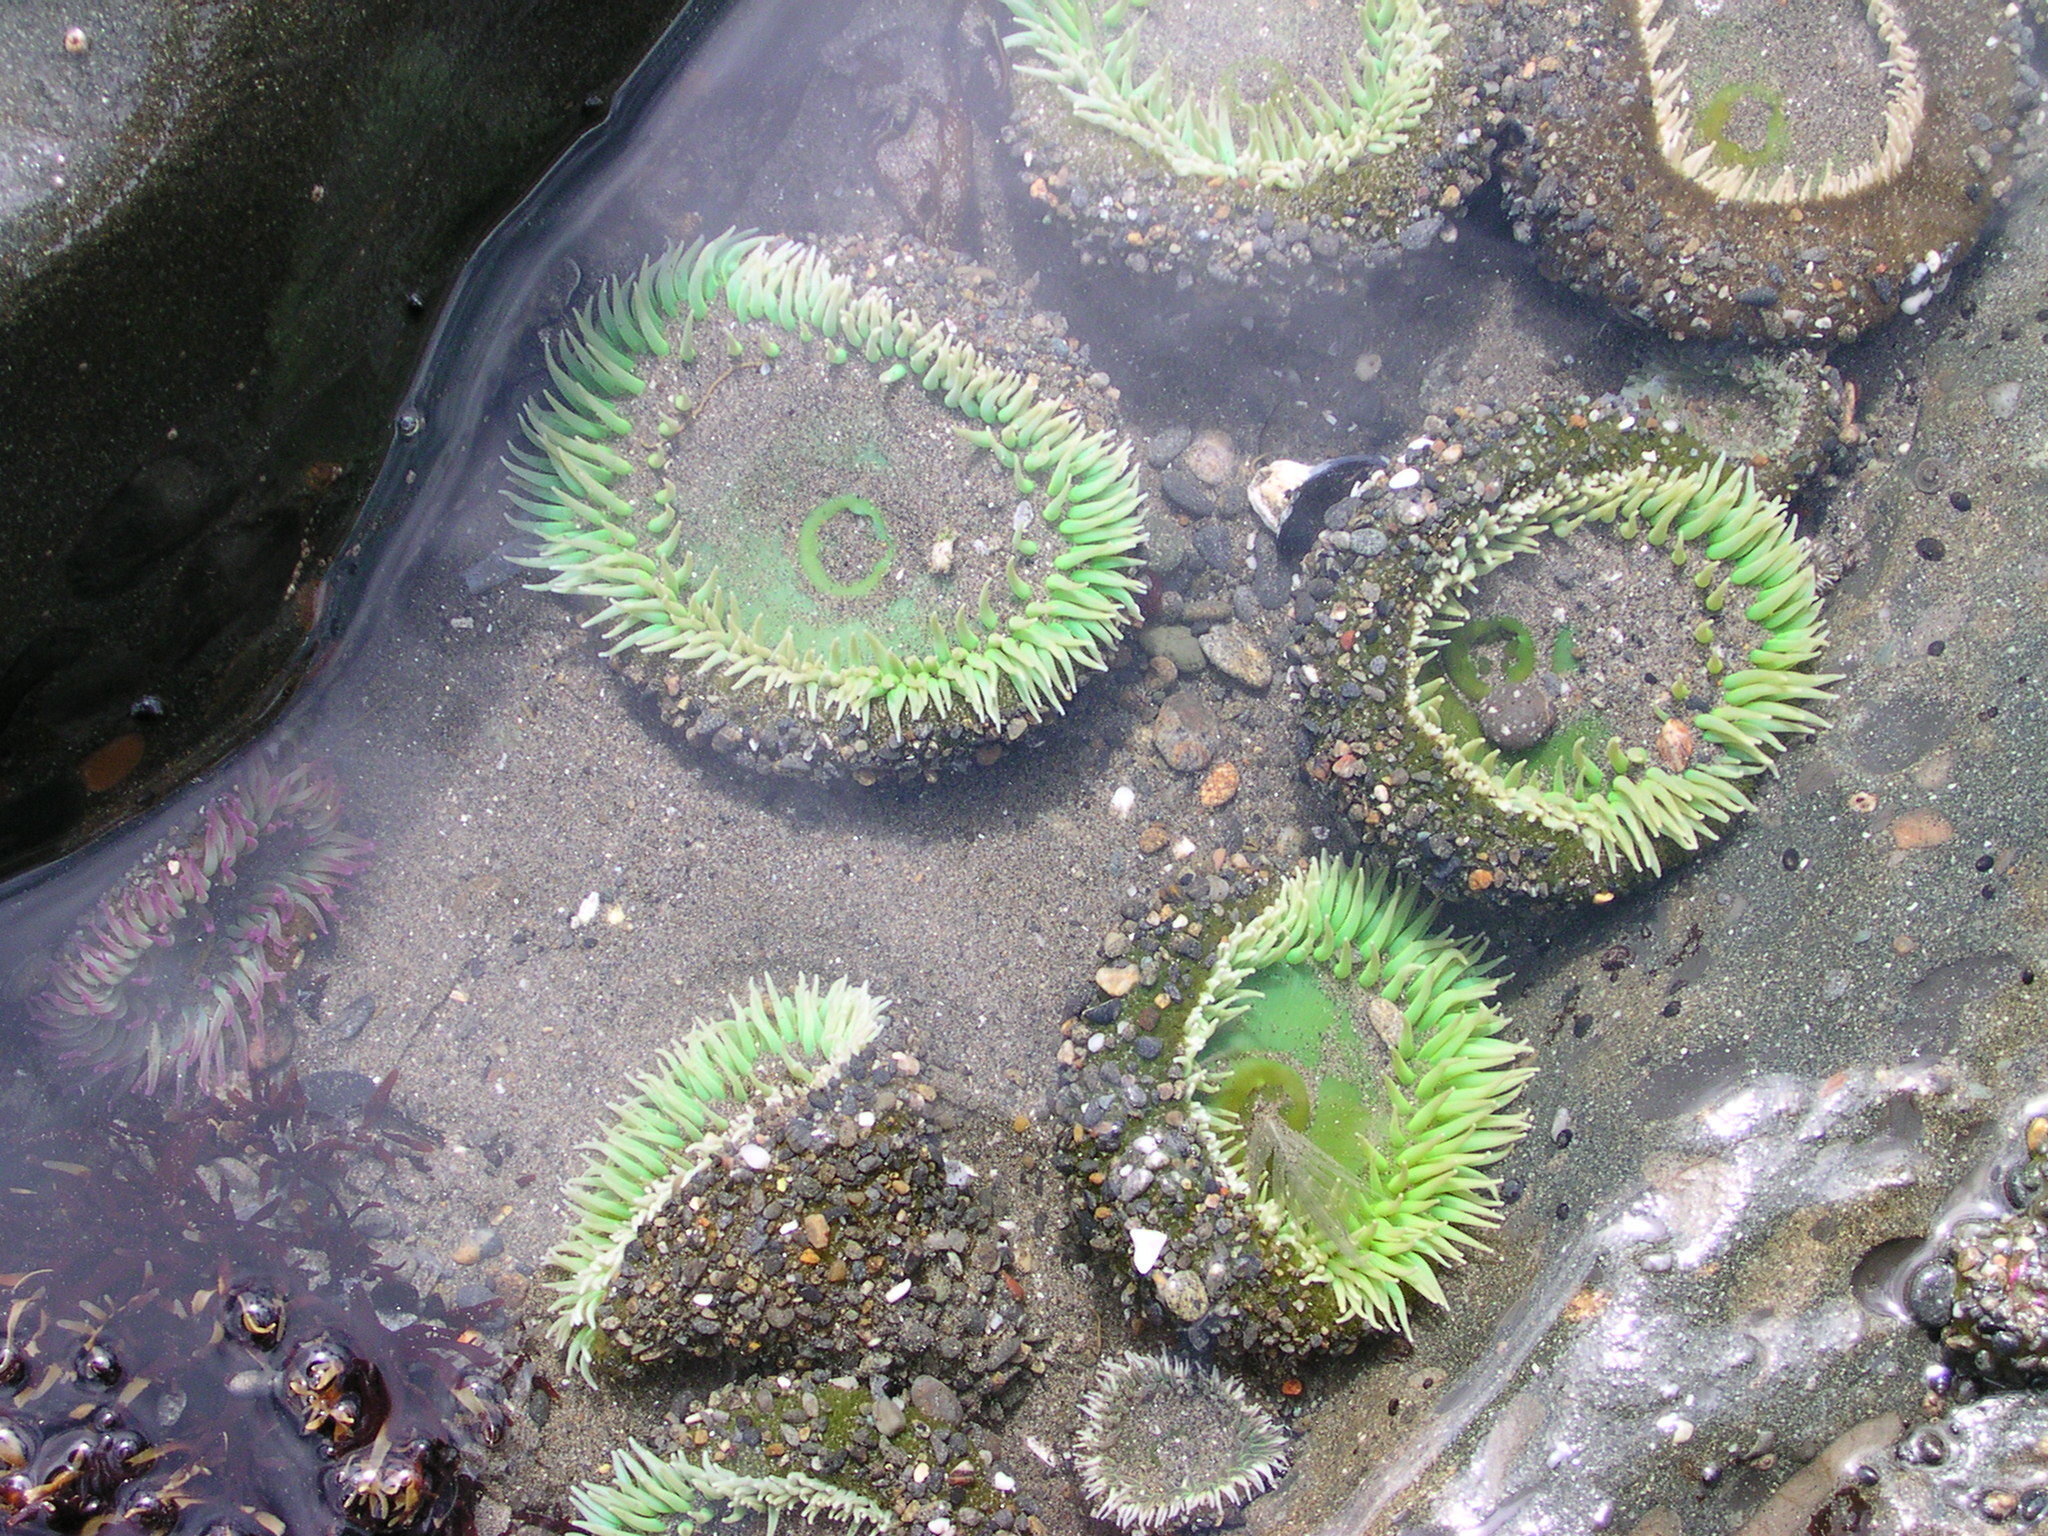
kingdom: Animalia
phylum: Cnidaria
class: Anthozoa
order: Actiniaria
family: Actiniidae
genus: Anthopleura
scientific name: Anthopleura xanthogrammica
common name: Giant green anemone
